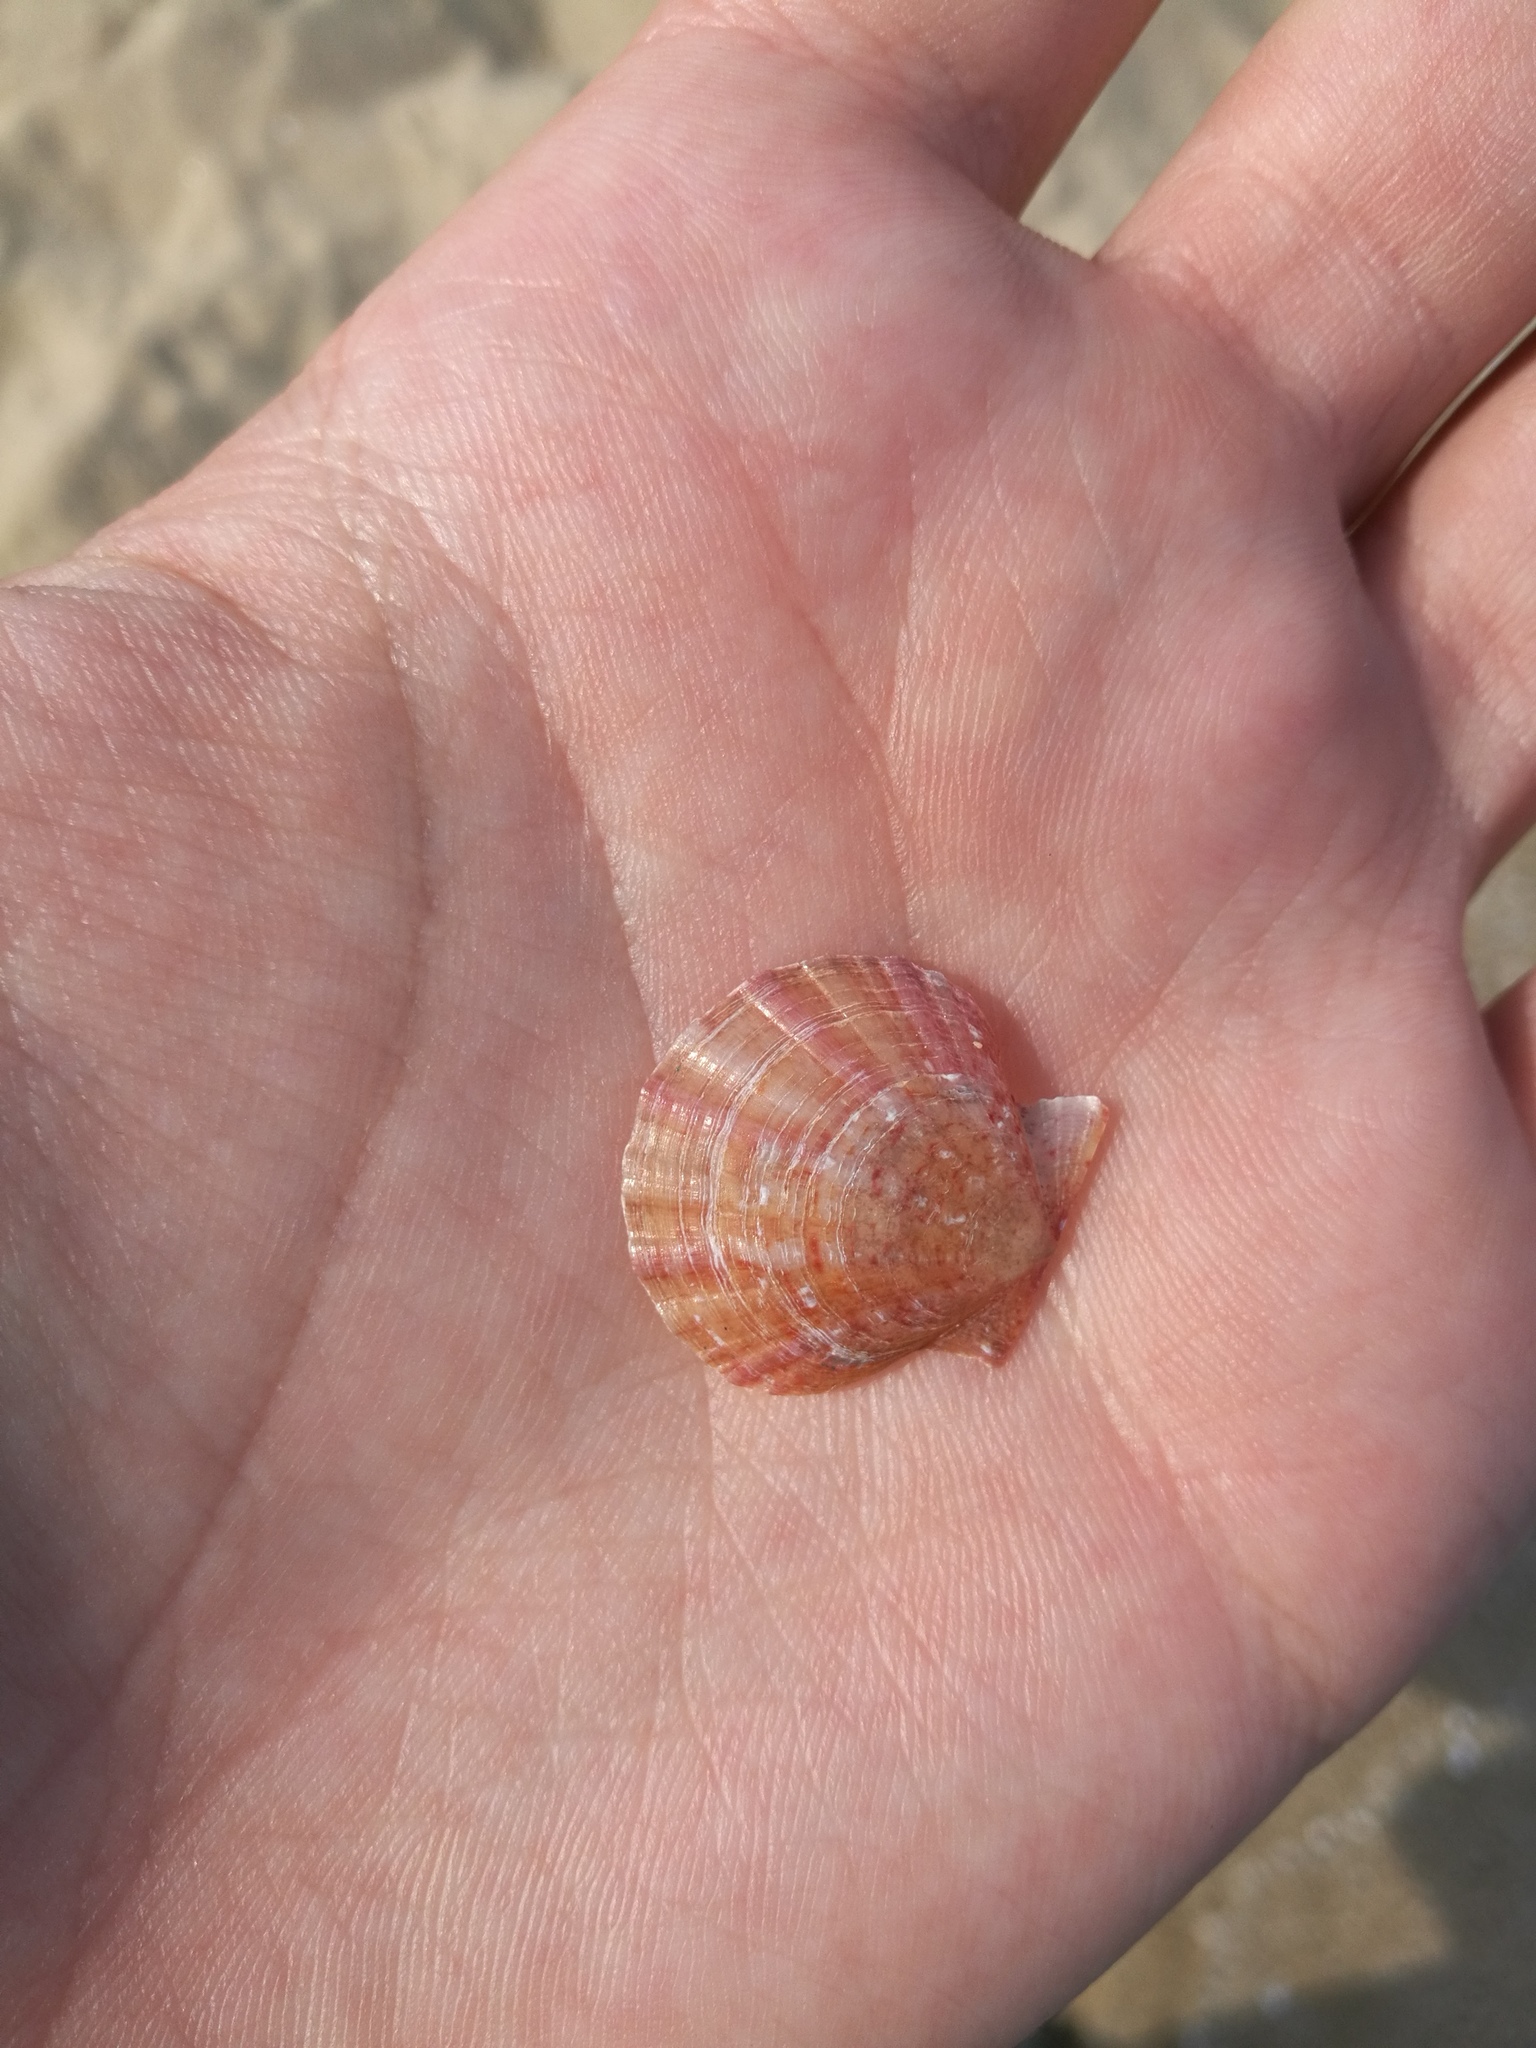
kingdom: Animalia
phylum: Mollusca
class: Bivalvia
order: Pectinida
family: Pectinidae
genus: Flexopecten
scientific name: Flexopecten hyalinus
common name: Hyaline scallop
